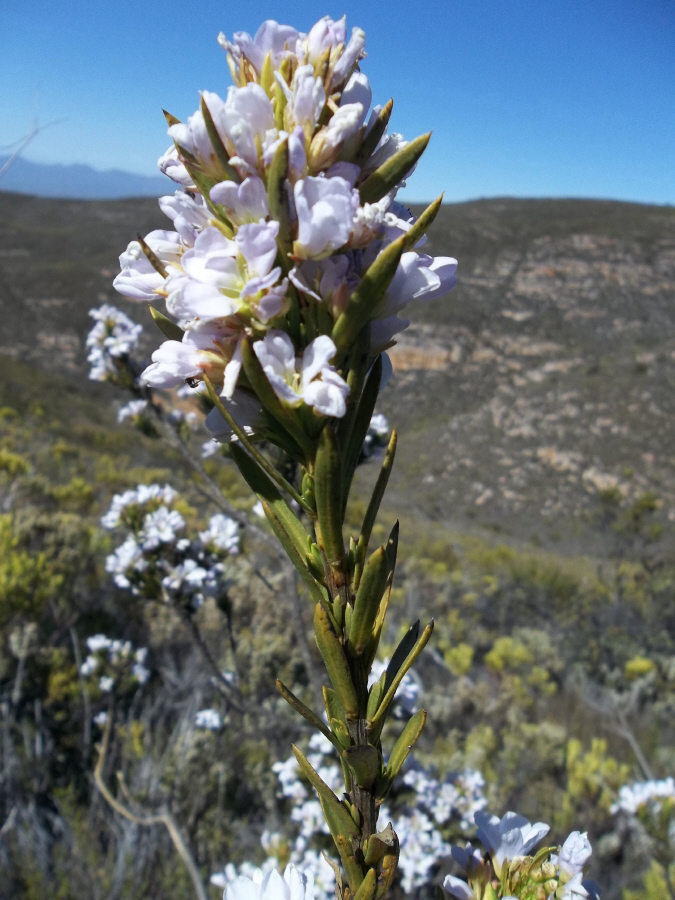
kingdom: Plantae
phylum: Tracheophyta
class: Magnoliopsida
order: Brassicales
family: Brassicaceae
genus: Heliophila
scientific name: Heliophila scoparia
